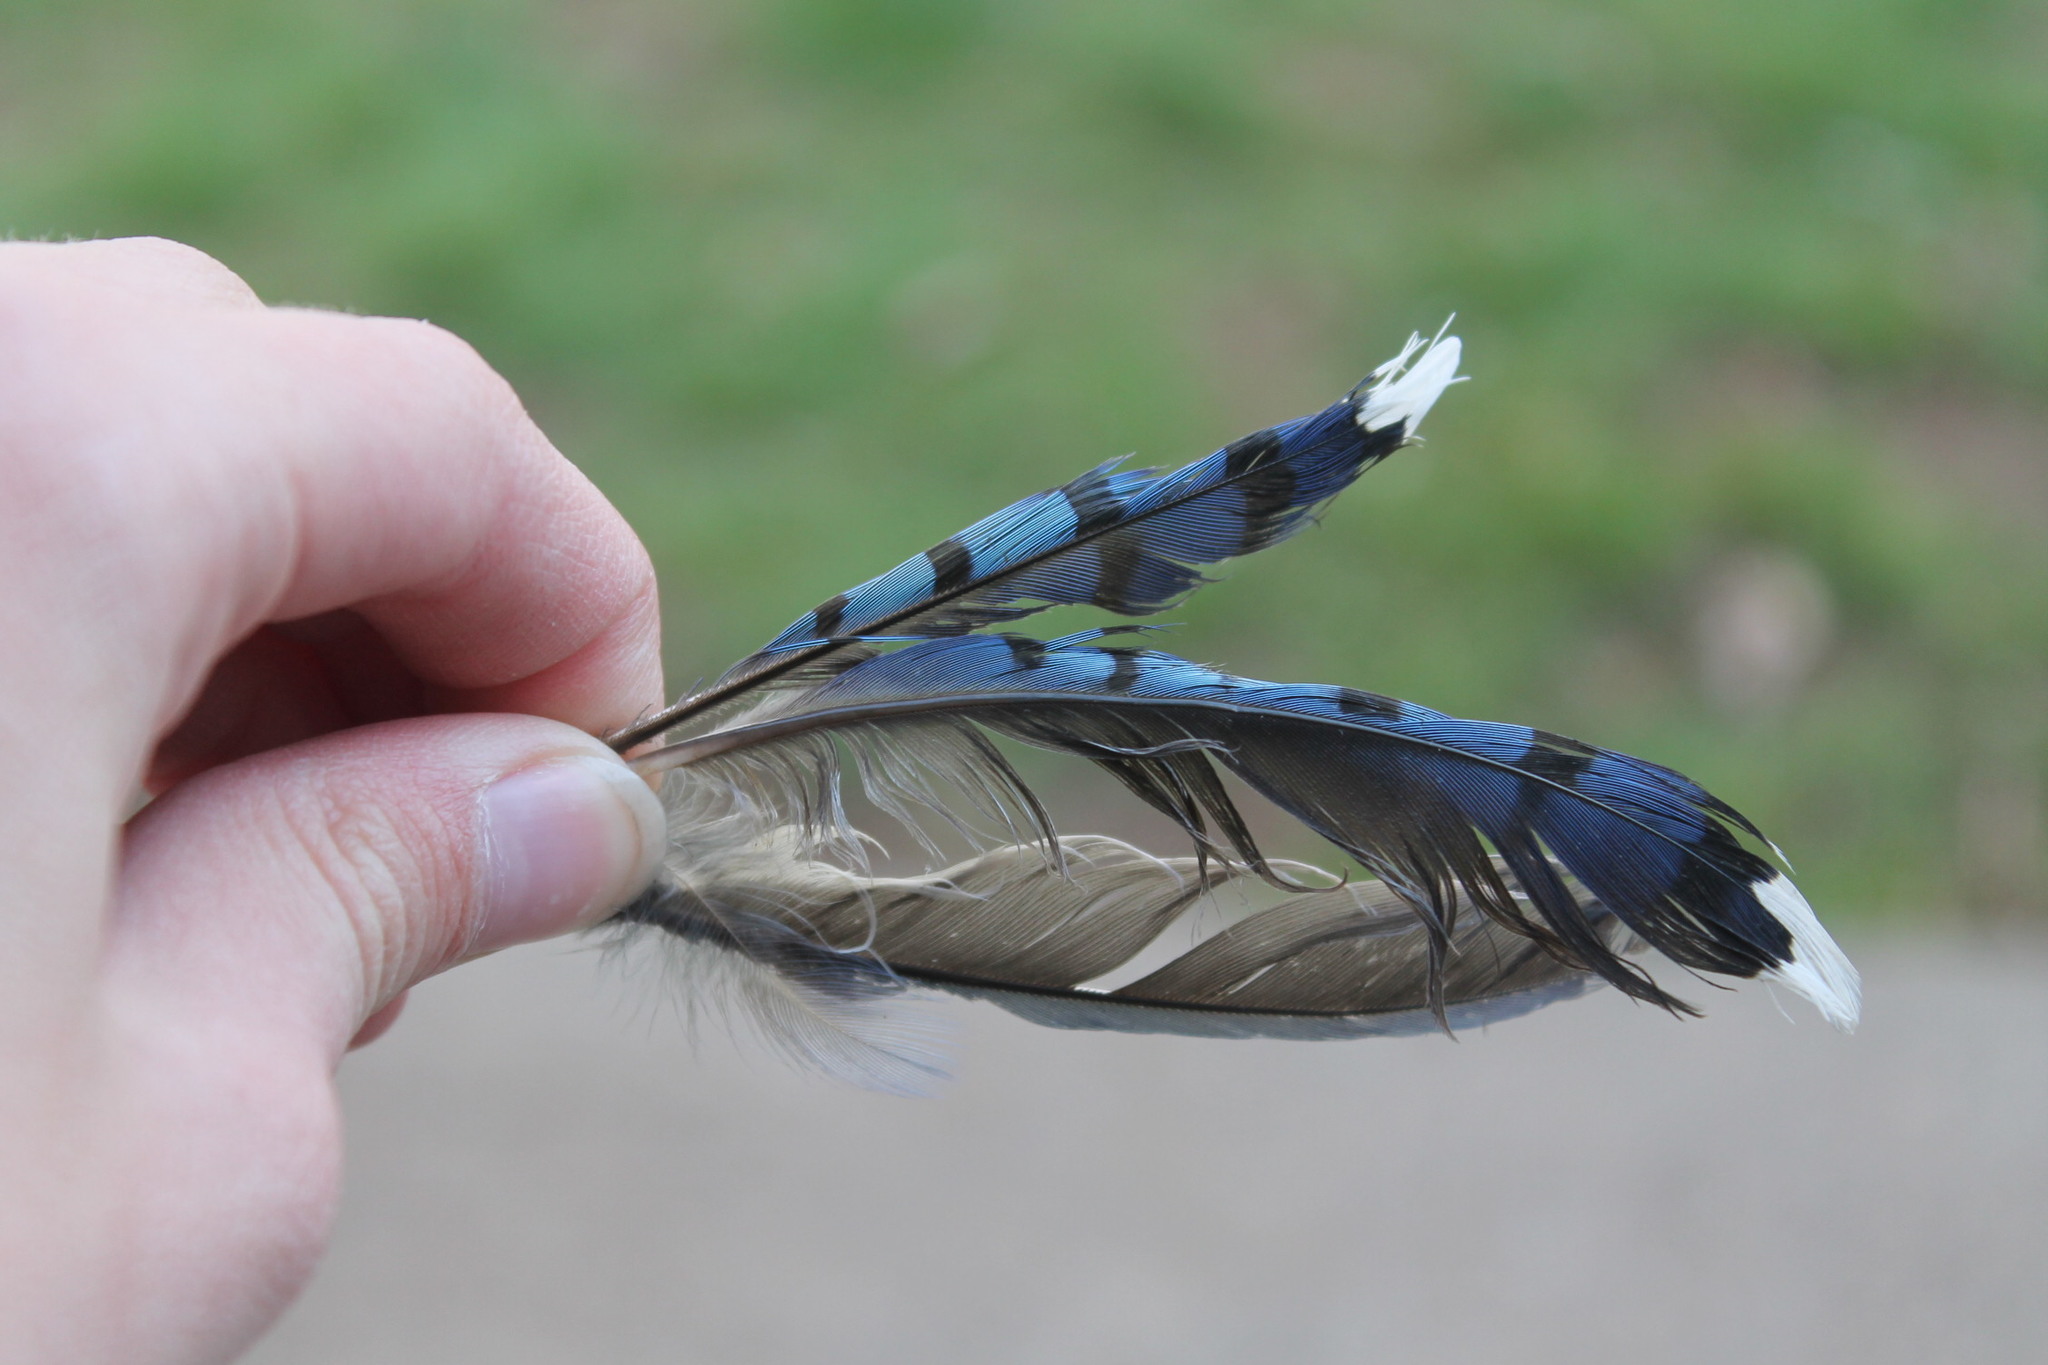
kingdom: Animalia
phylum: Chordata
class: Aves
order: Passeriformes
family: Corvidae
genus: Cyanocitta
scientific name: Cyanocitta cristata
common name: Blue jay
